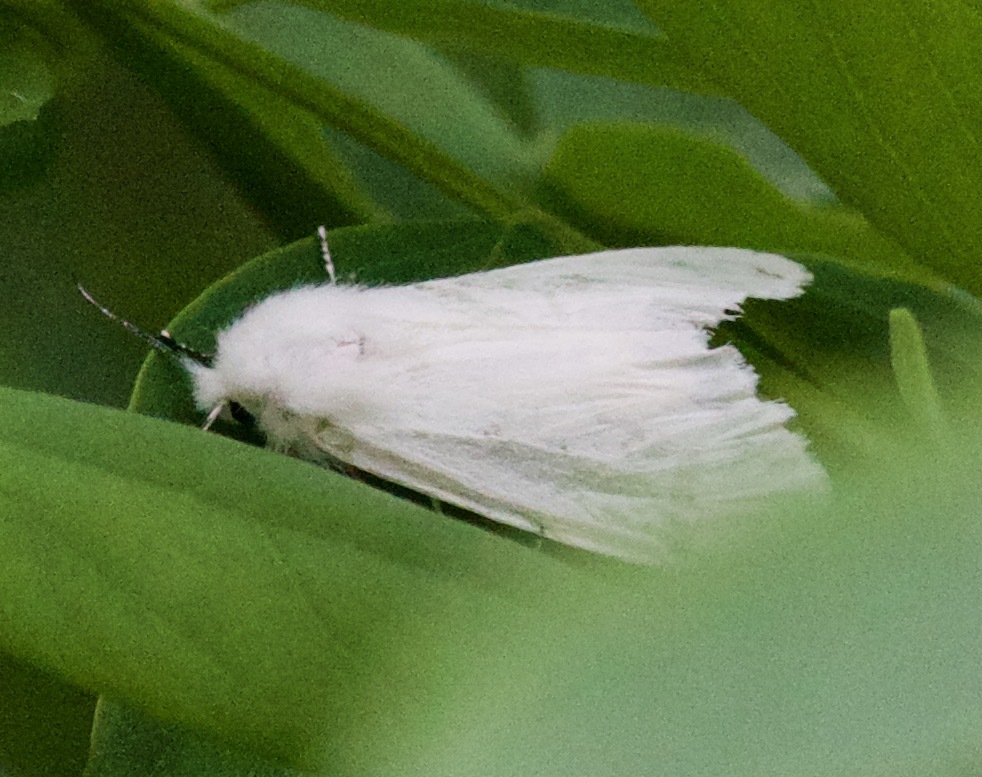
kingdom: Animalia
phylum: Arthropoda
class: Insecta
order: Lepidoptera
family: Erebidae
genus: Hyphantria
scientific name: Hyphantria cunea
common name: American white moth
